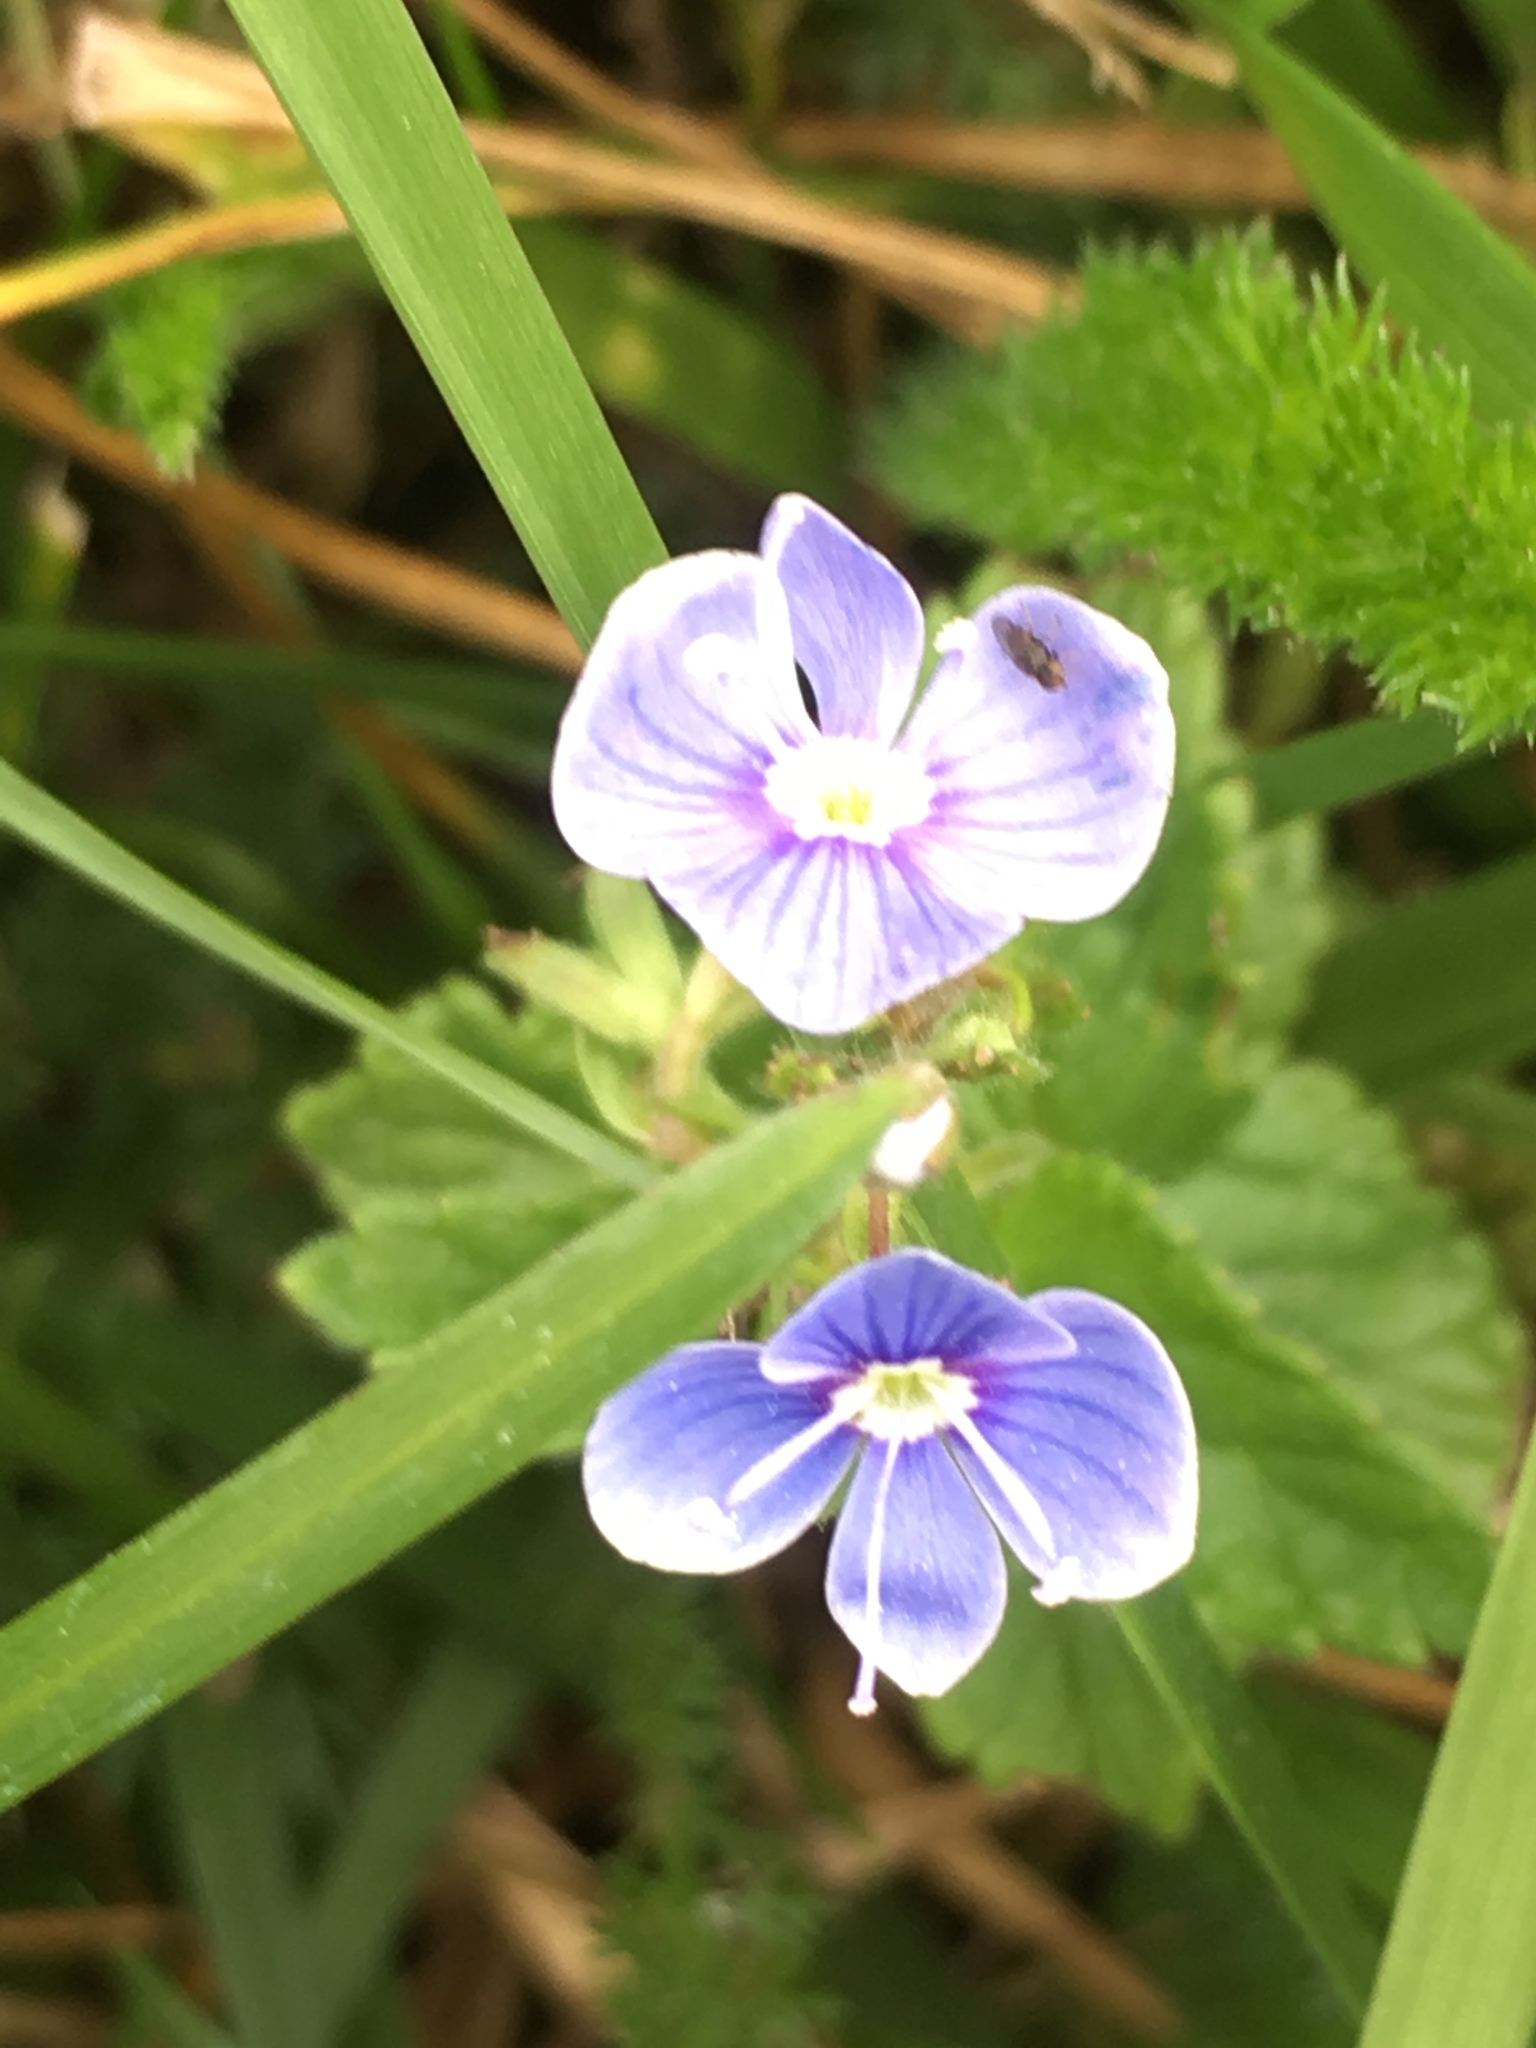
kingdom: Plantae
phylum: Tracheophyta
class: Magnoliopsida
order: Lamiales
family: Plantaginaceae
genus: Veronica
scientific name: Veronica chamaedrys
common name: Germander speedwell
